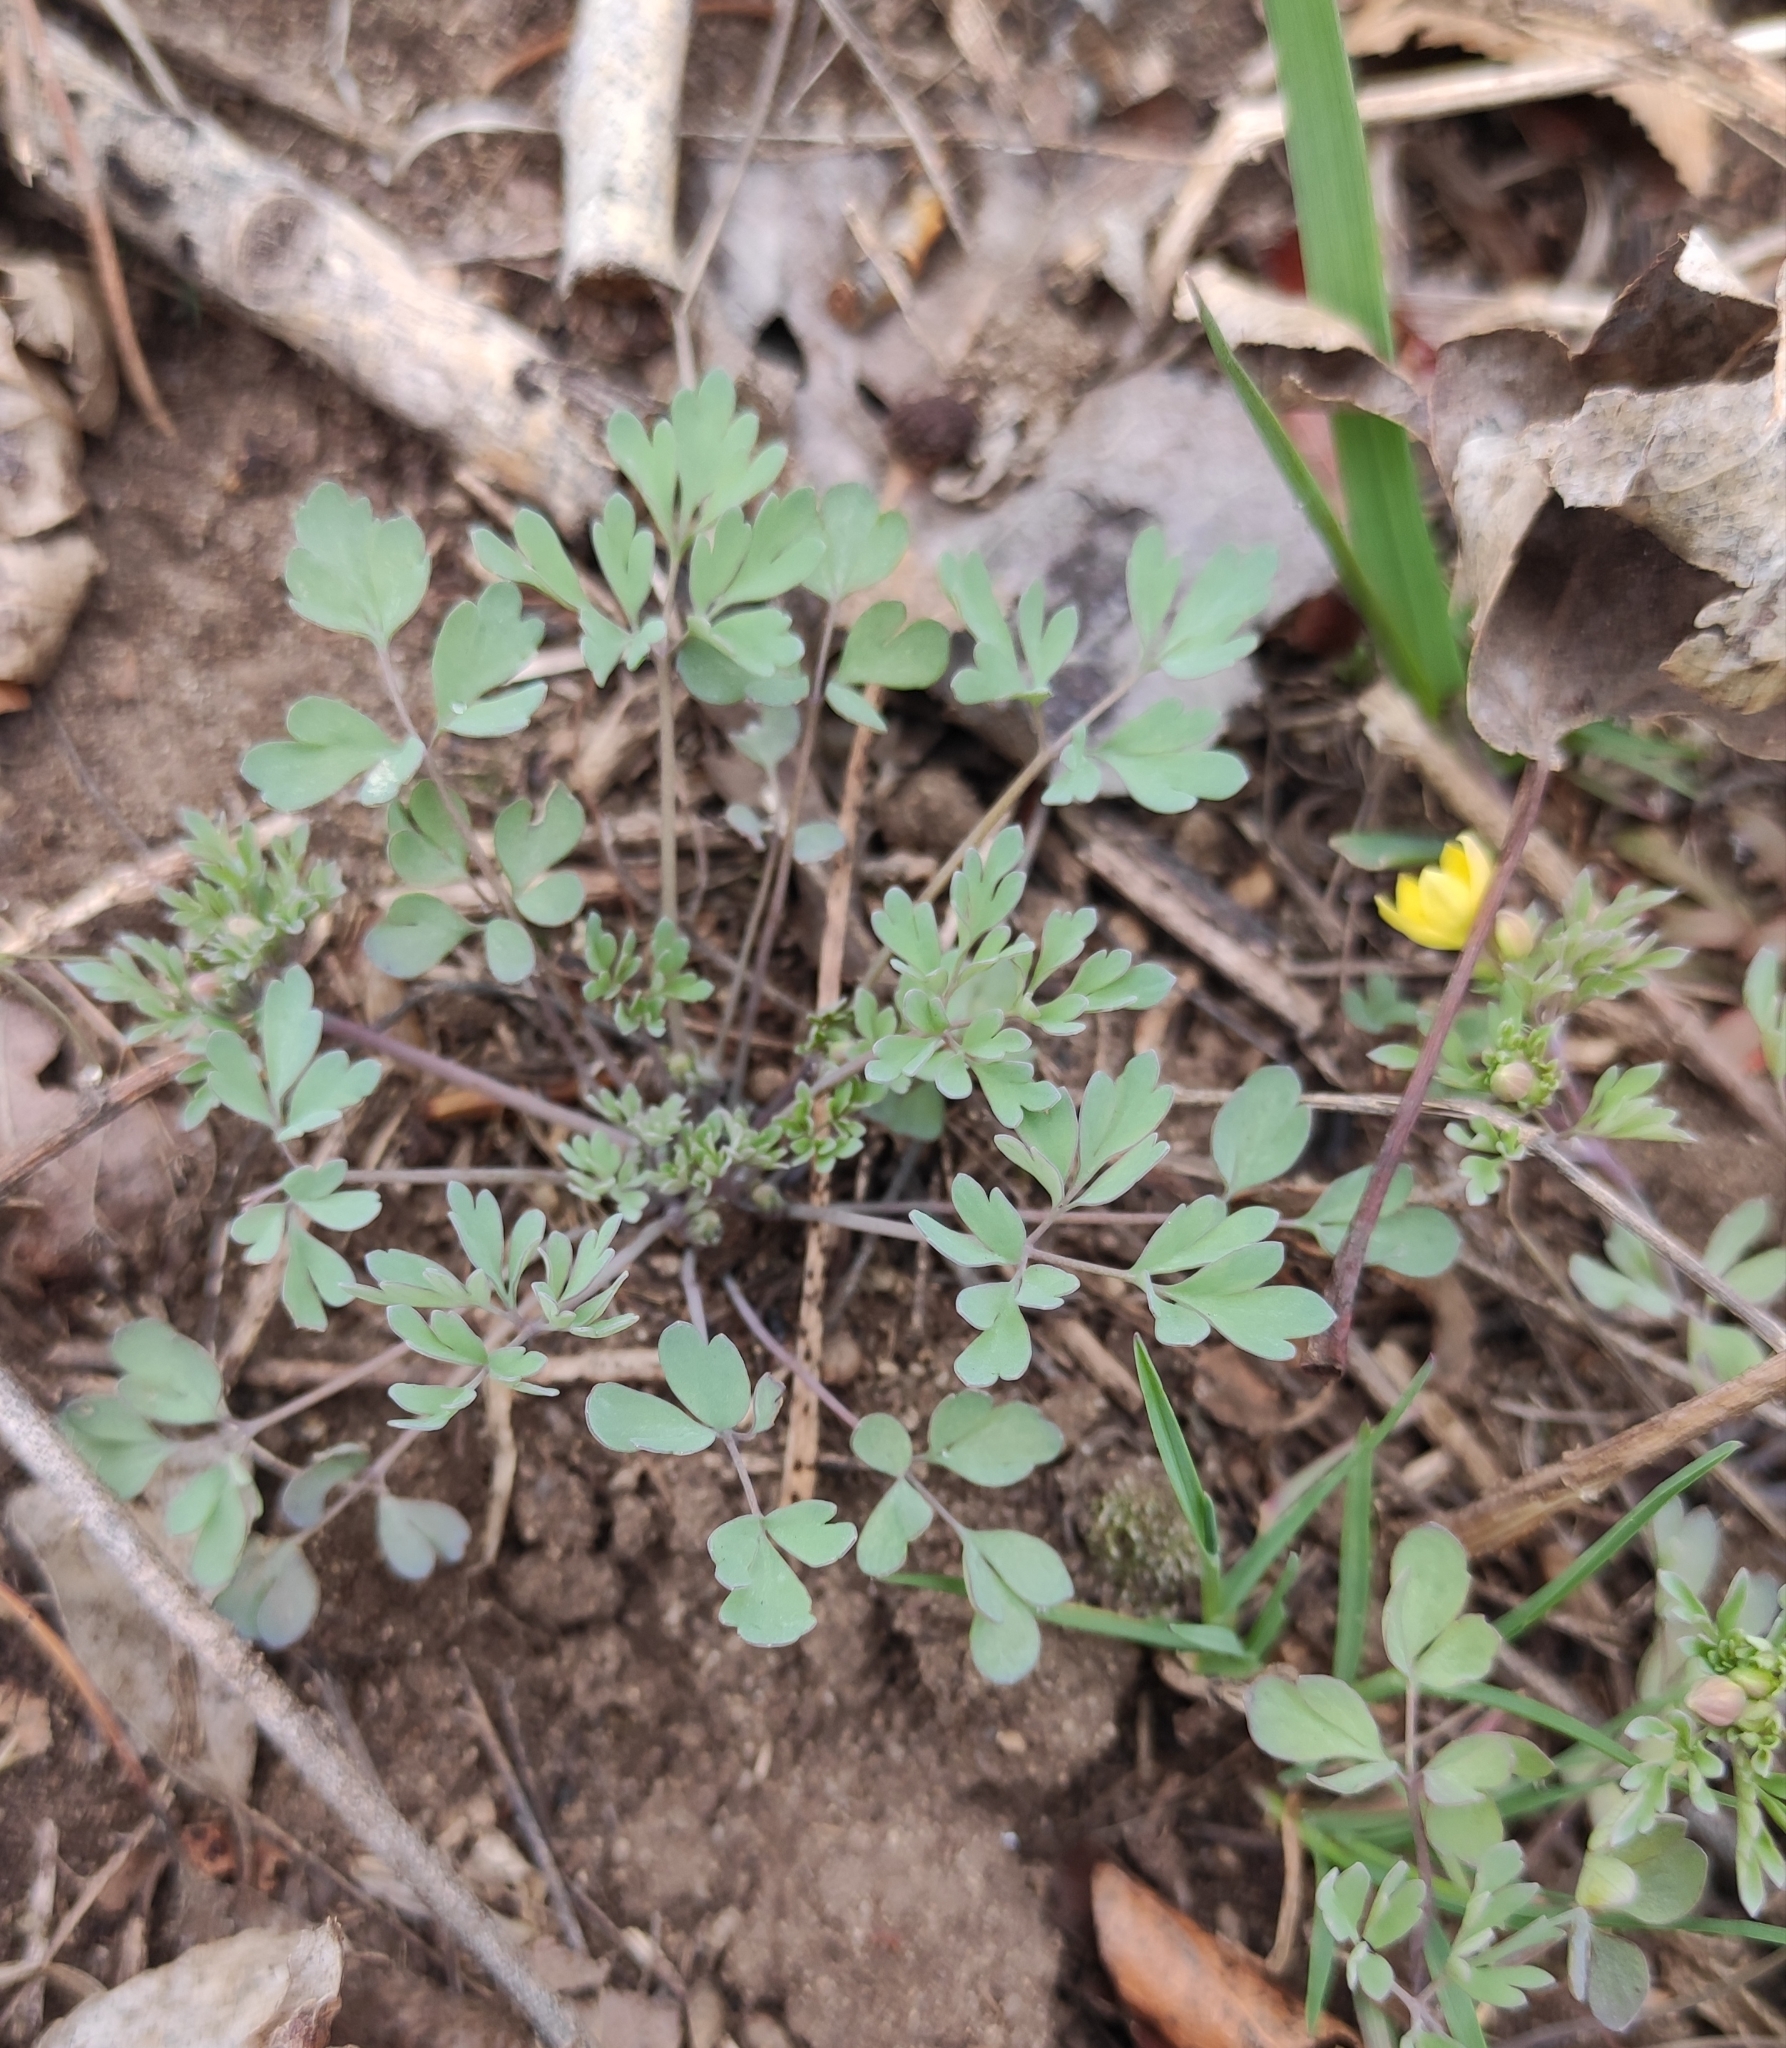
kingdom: Plantae
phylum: Tracheophyta
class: Magnoliopsida
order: Ranunculales
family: Ranunculaceae
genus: Leptopyrum
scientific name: Leptopyrum fumarioides
